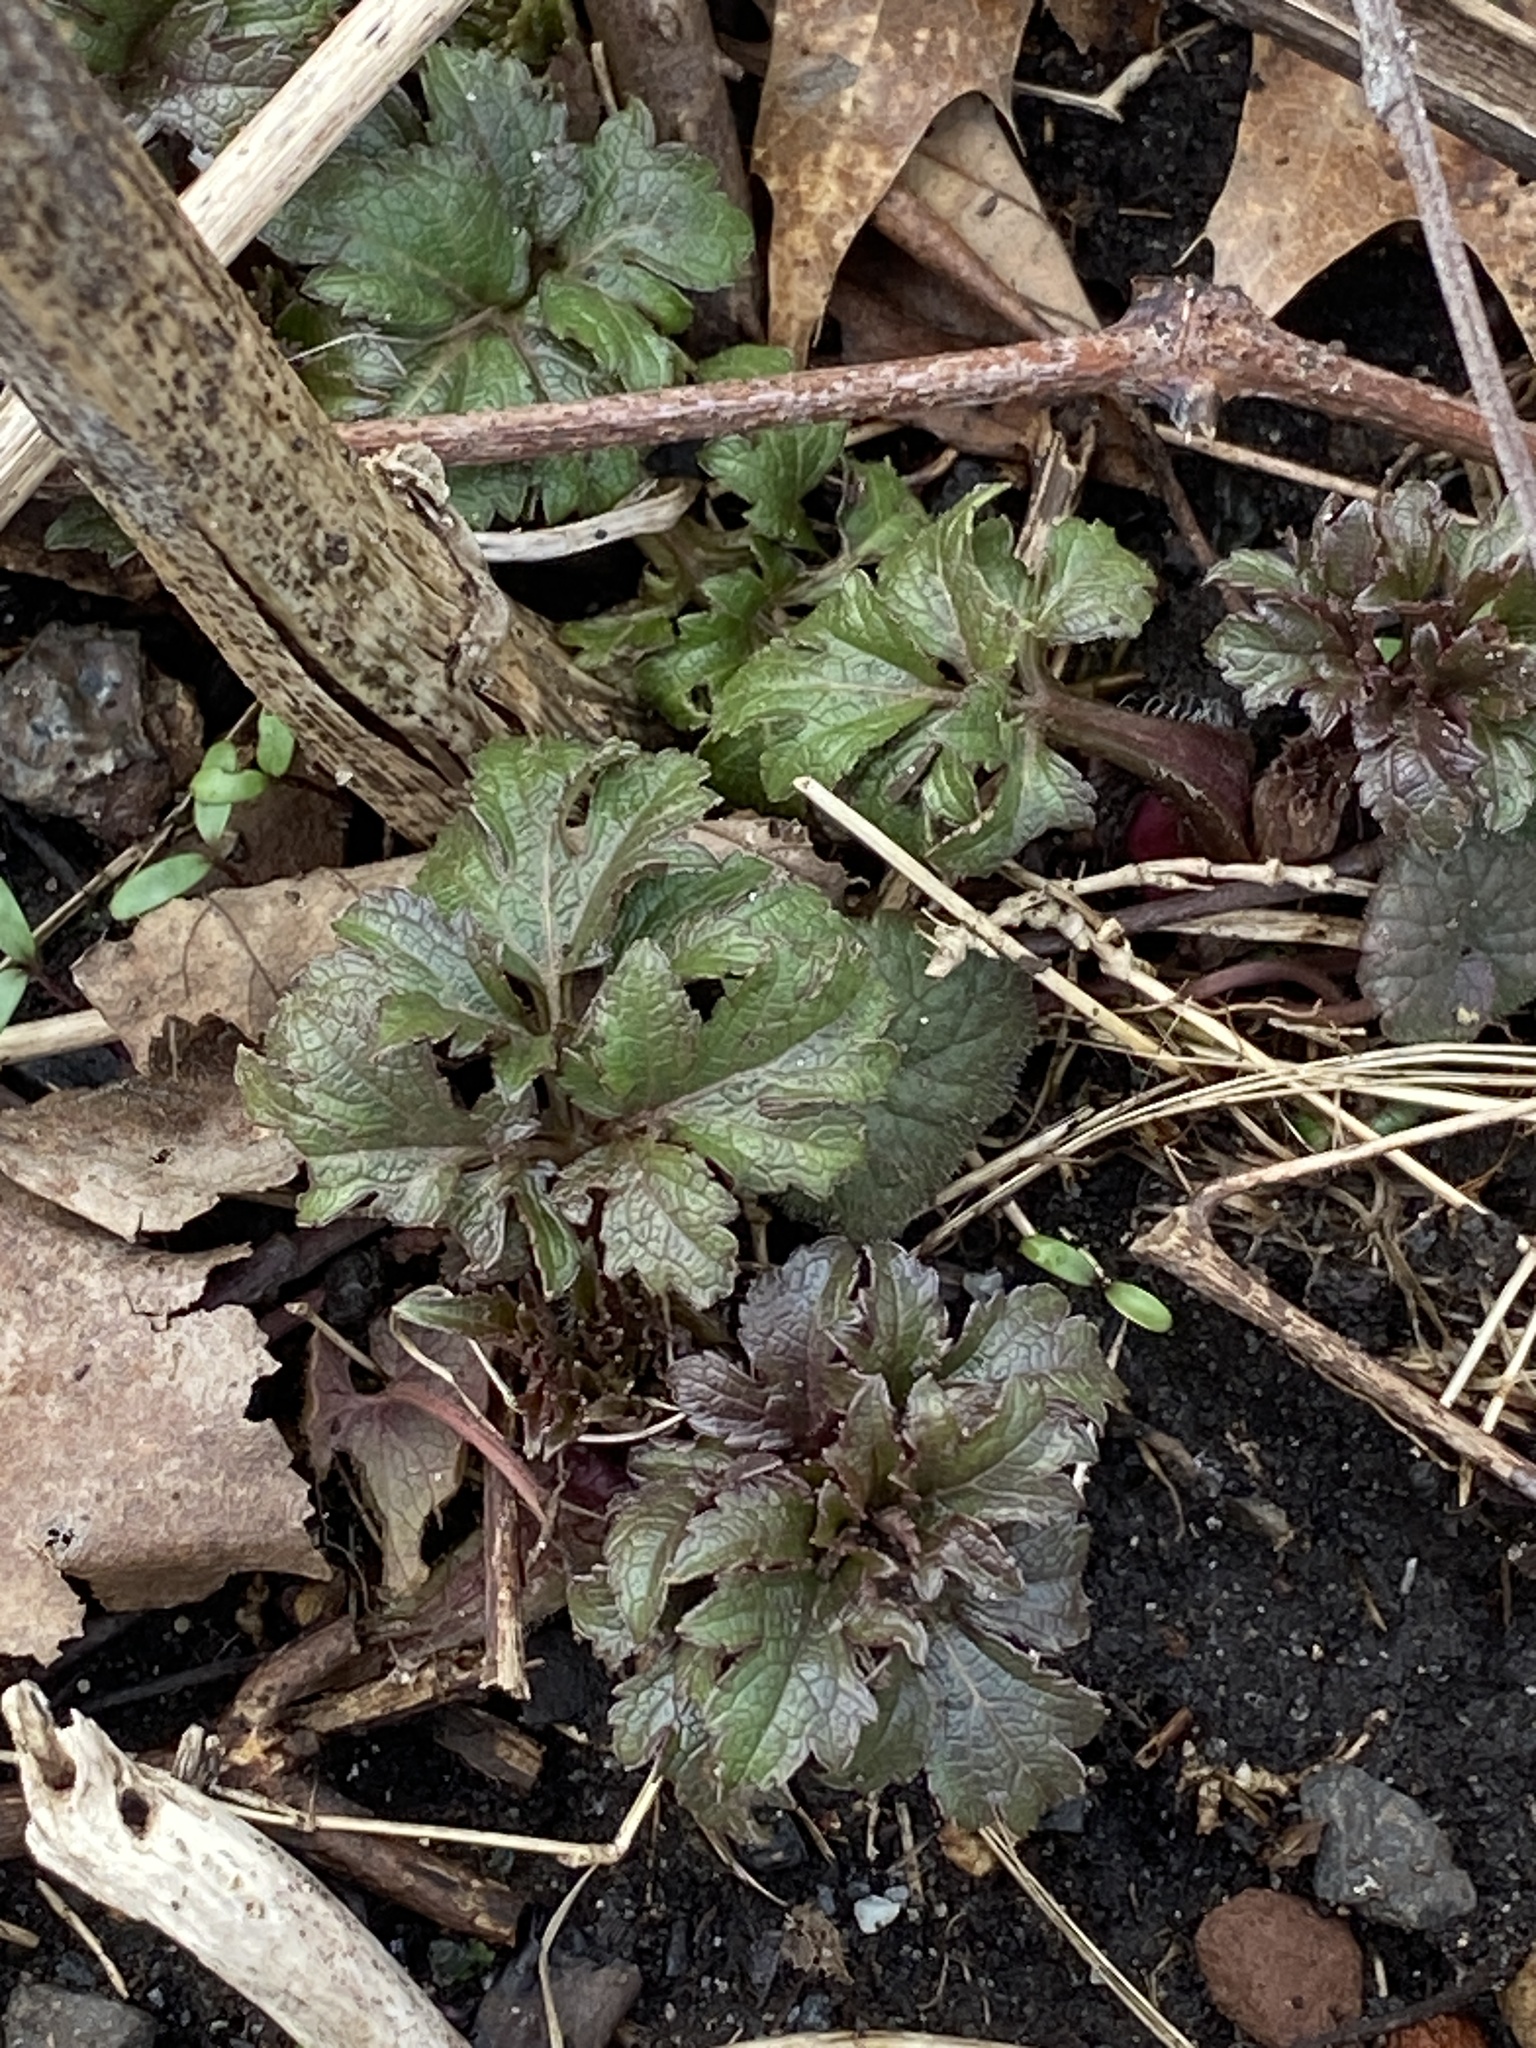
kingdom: Plantae
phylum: Tracheophyta
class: Magnoliopsida
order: Asterales
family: Asteraceae
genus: Rudbeckia
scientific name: Rudbeckia laciniata
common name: Coneflower
